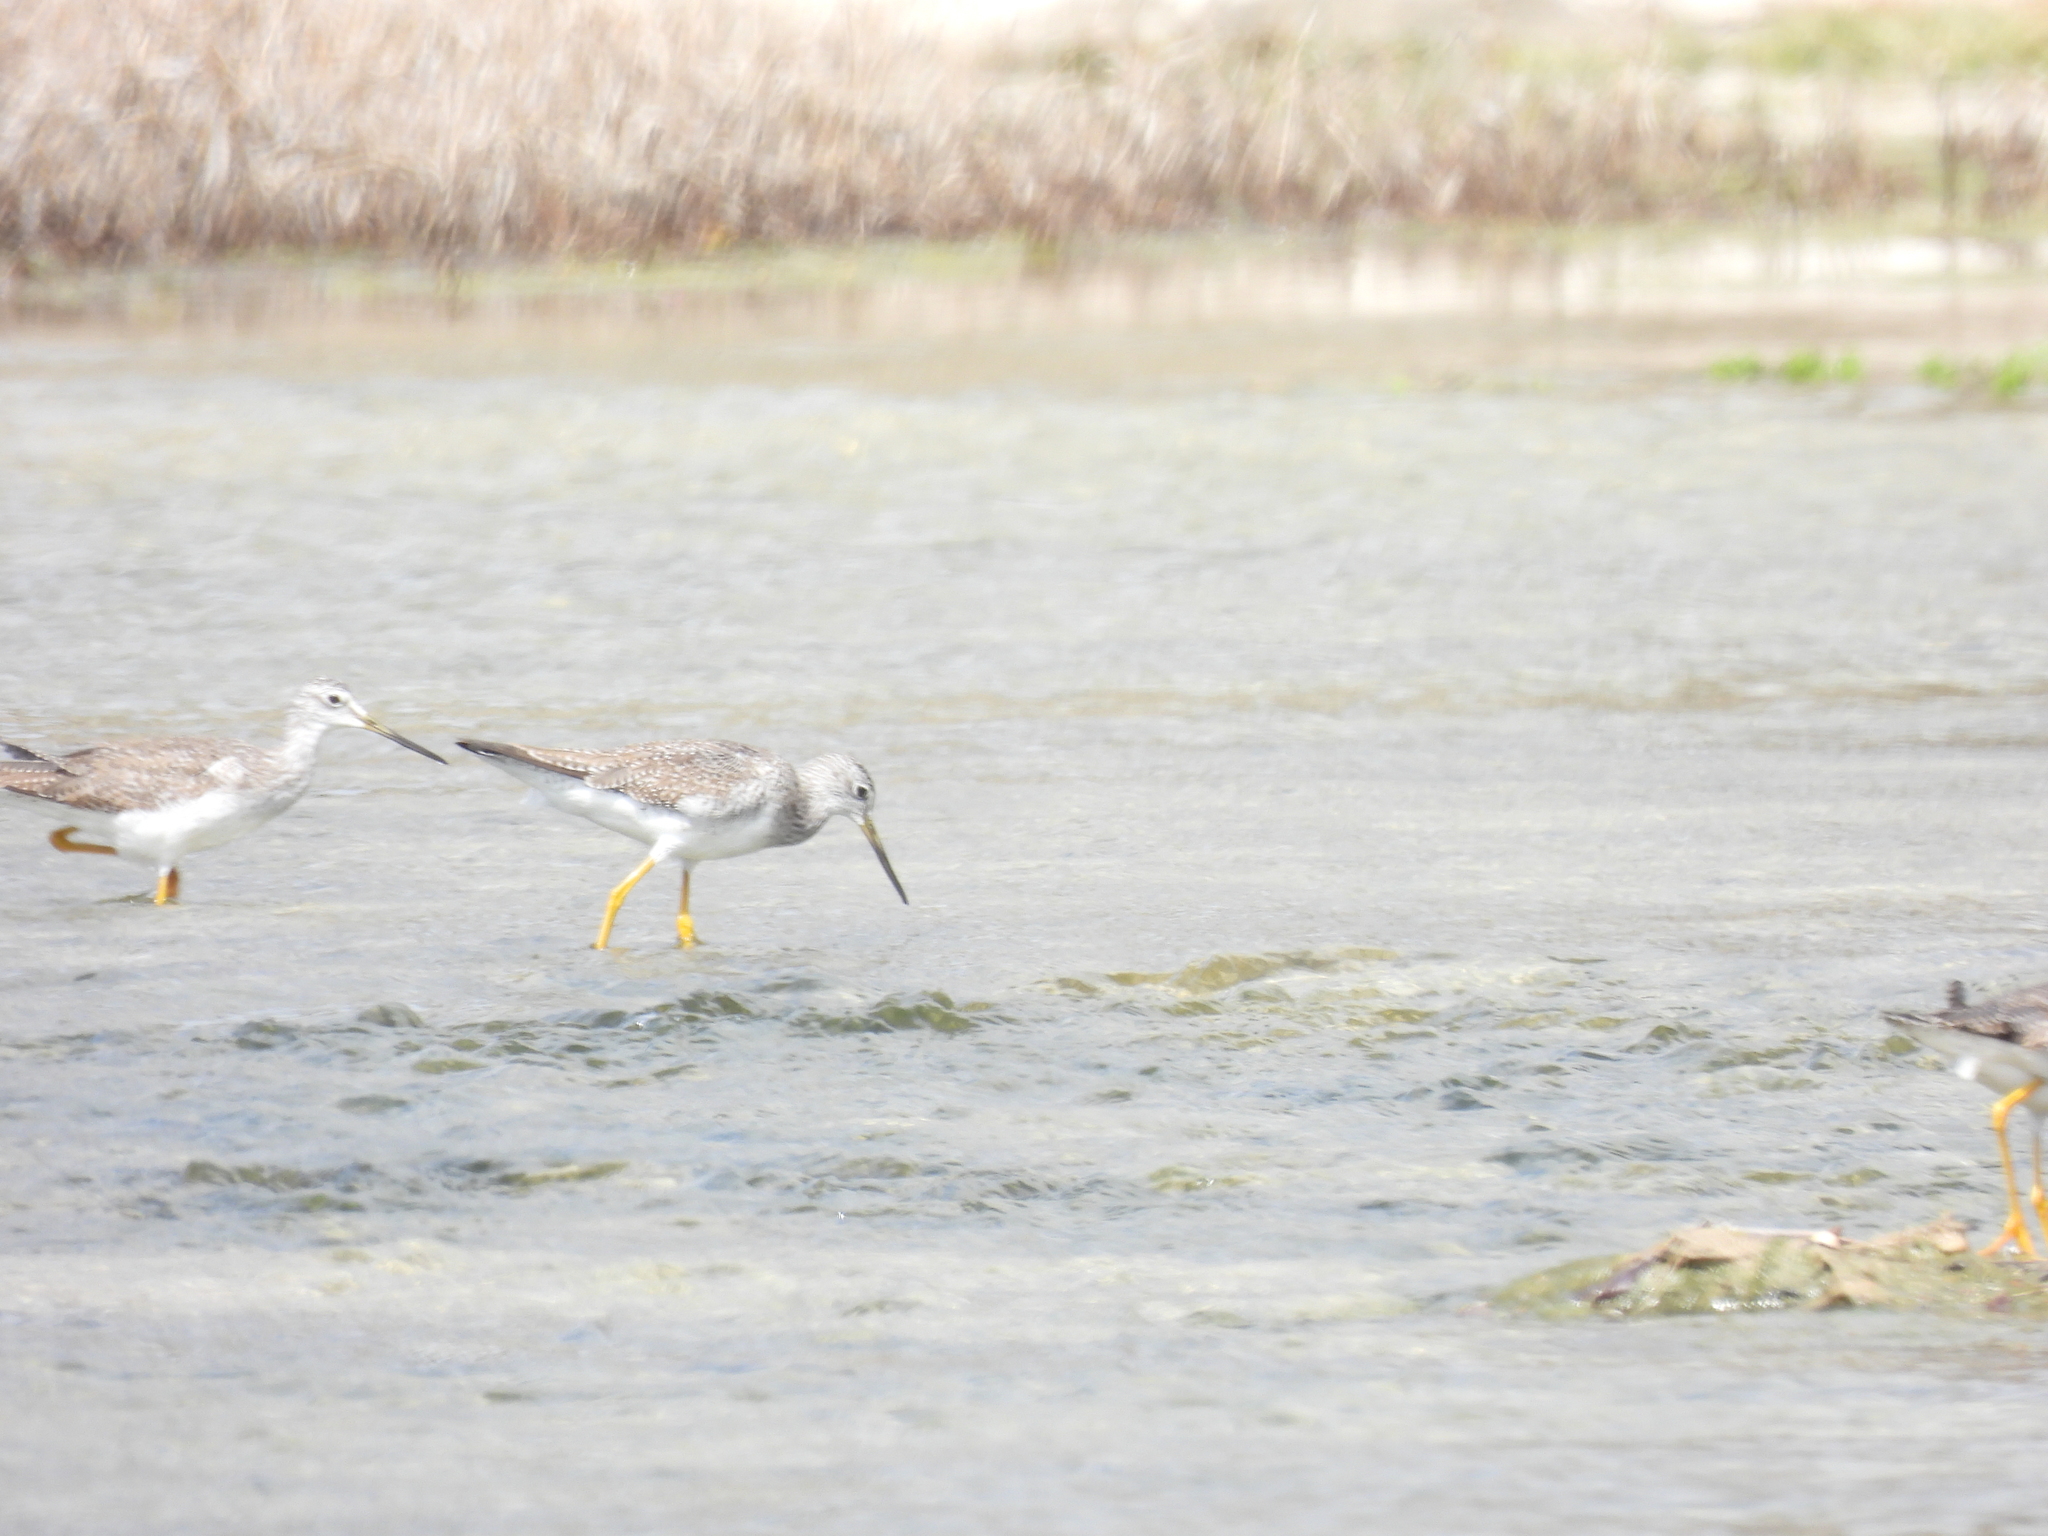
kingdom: Animalia
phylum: Chordata
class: Aves
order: Charadriiformes
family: Scolopacidae
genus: Tringa
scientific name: Tringa melanoleuca
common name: Greater yellowlegs
